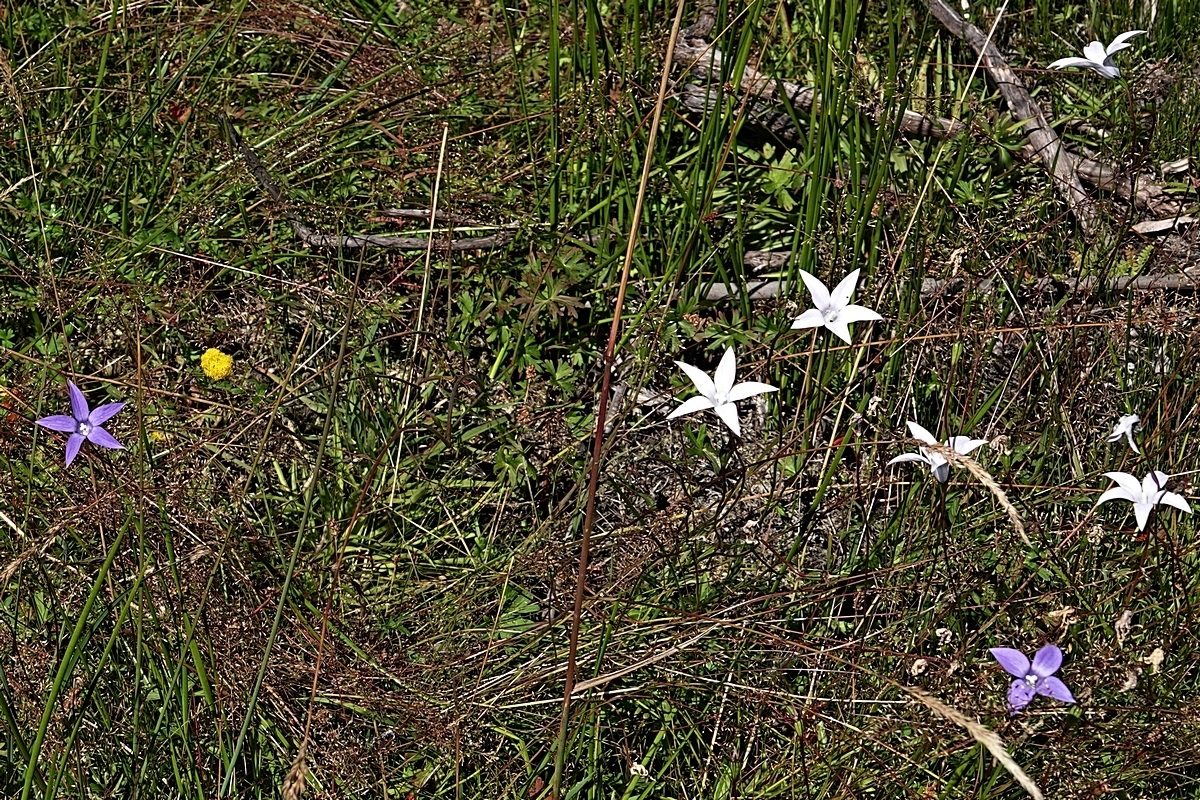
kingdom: Plantae
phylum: Tracheophyta
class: Magnoliopsida
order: Asterales
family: Campanulaceae
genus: Wahlenbergia
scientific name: Wahlenbergia ceracea
